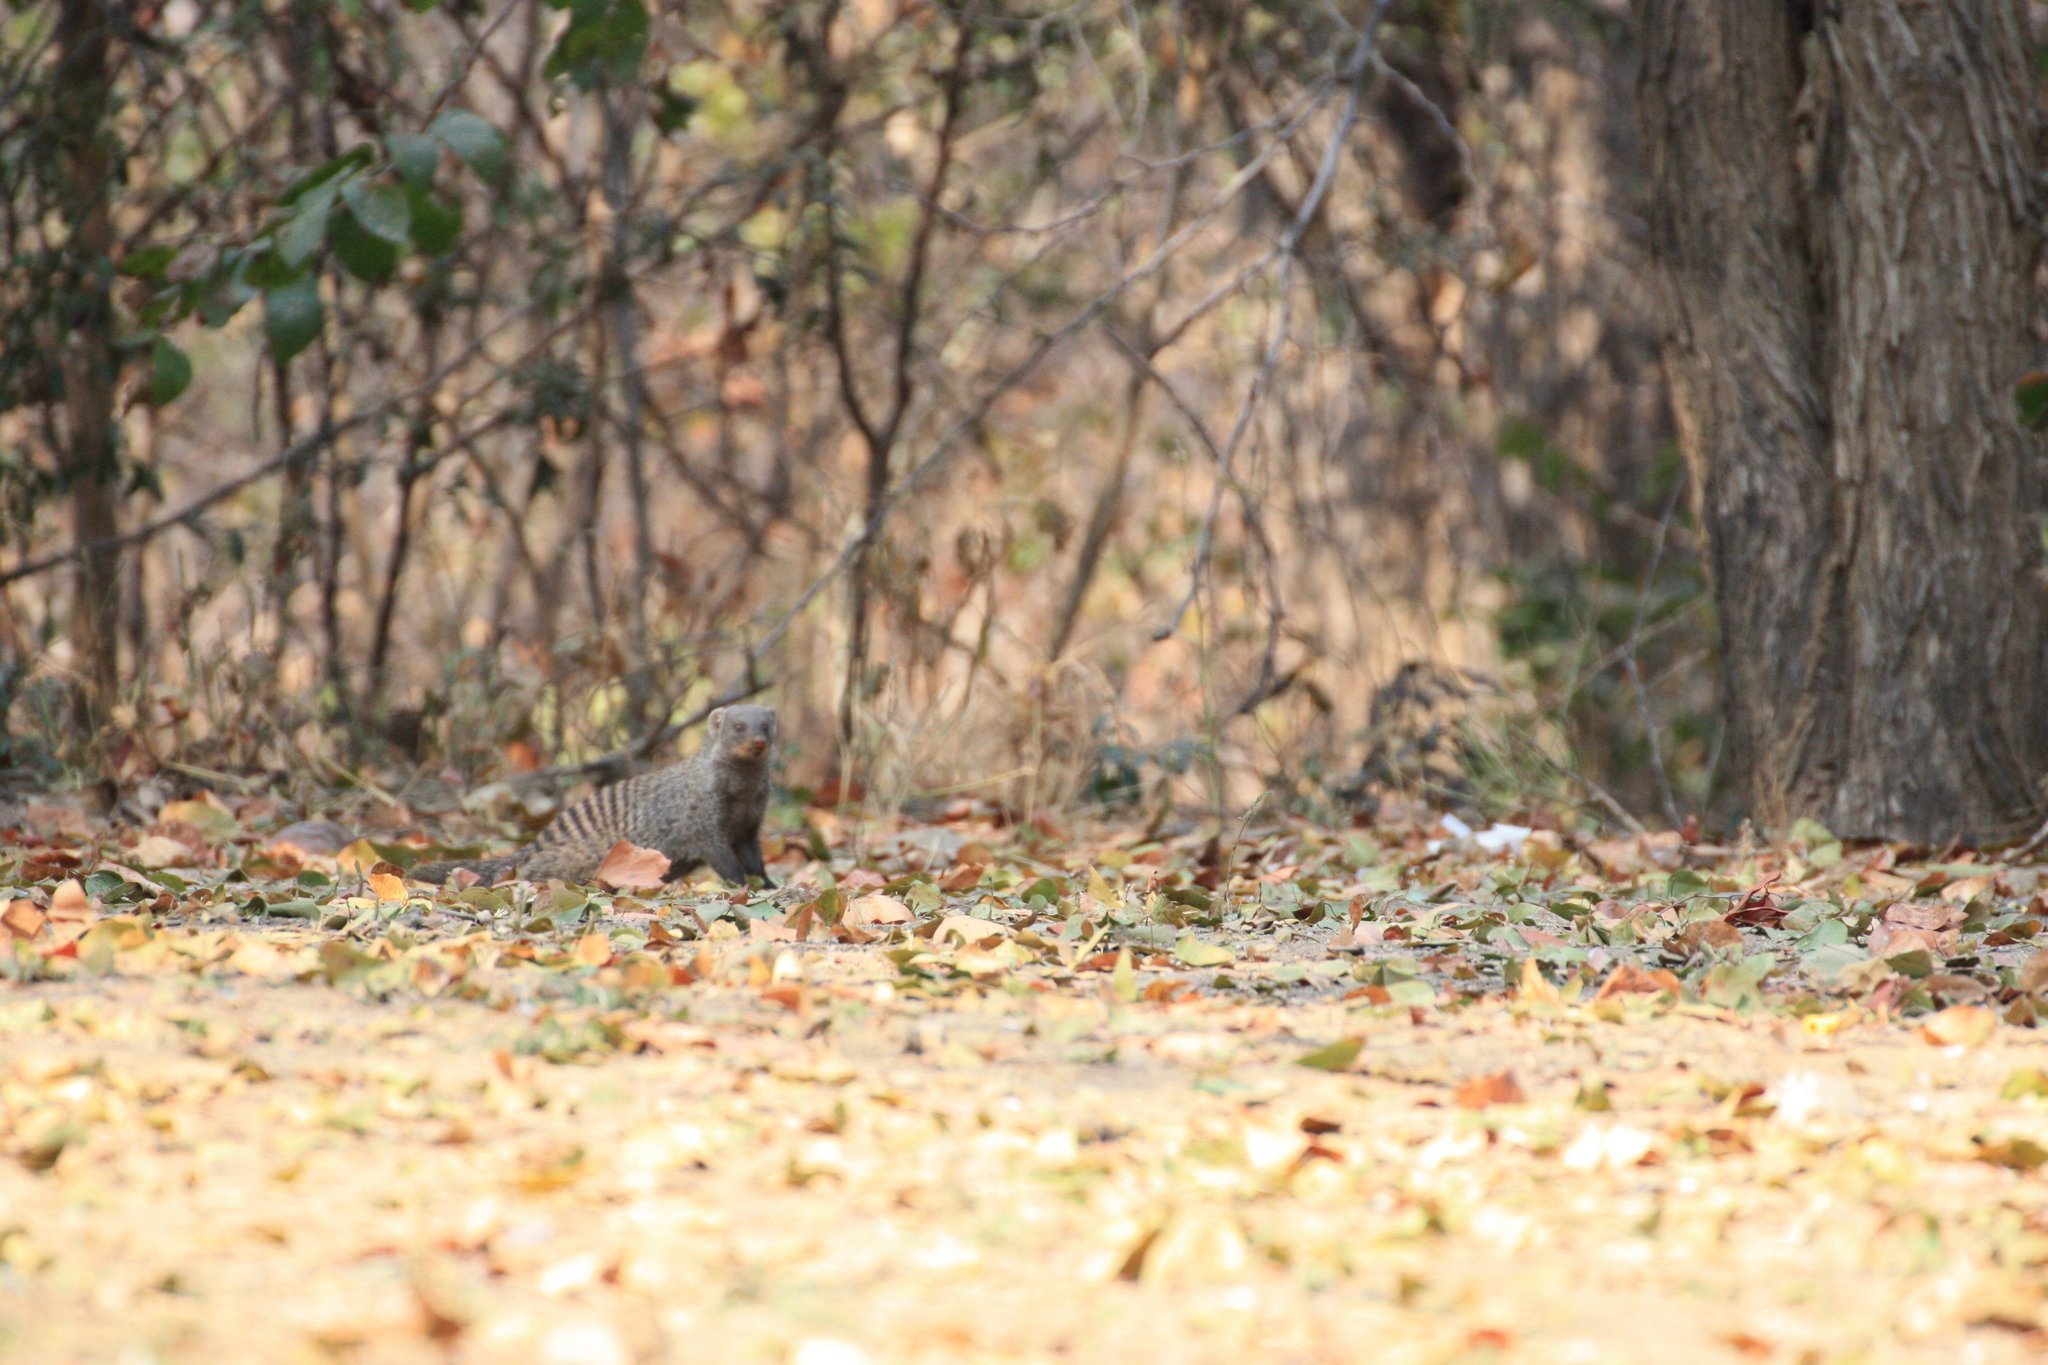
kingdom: Animalia
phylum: Chordata
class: Mammalia
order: Carnivora
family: Herpestidae
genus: Mungos
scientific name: Mungos mungo
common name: Banded mongoose
